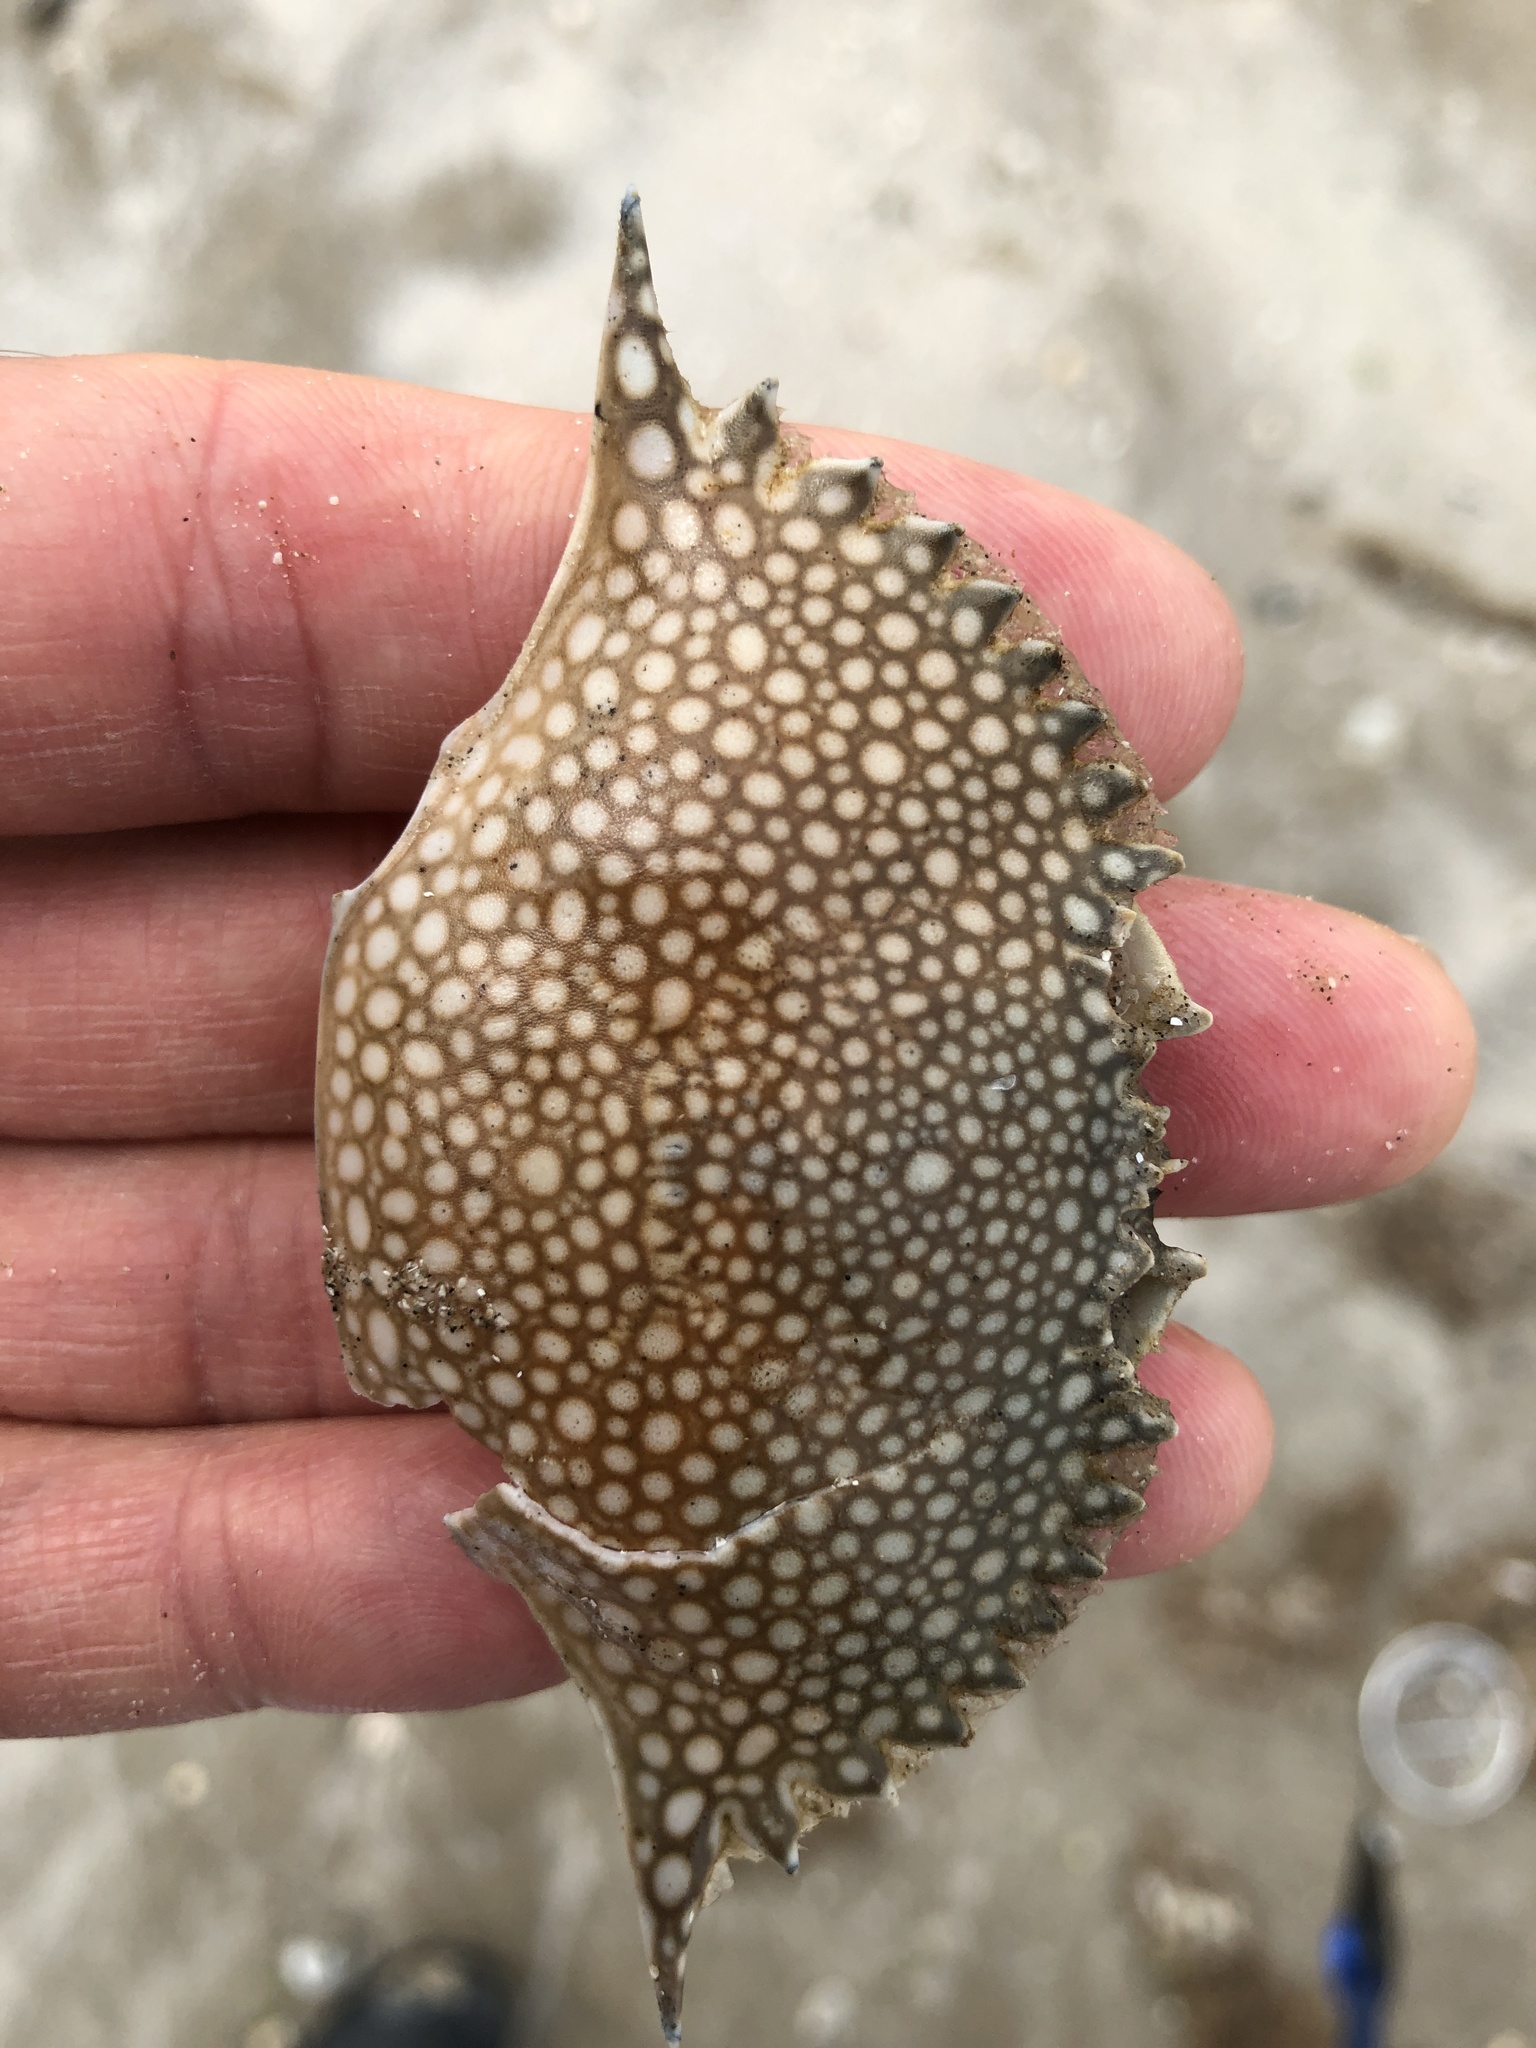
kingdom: Animalia
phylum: Arthropoda
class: Malacostraca
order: Decapoda
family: Portunidae
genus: Arenaeus
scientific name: Arenaeus cribrarius
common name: Speckled crab
